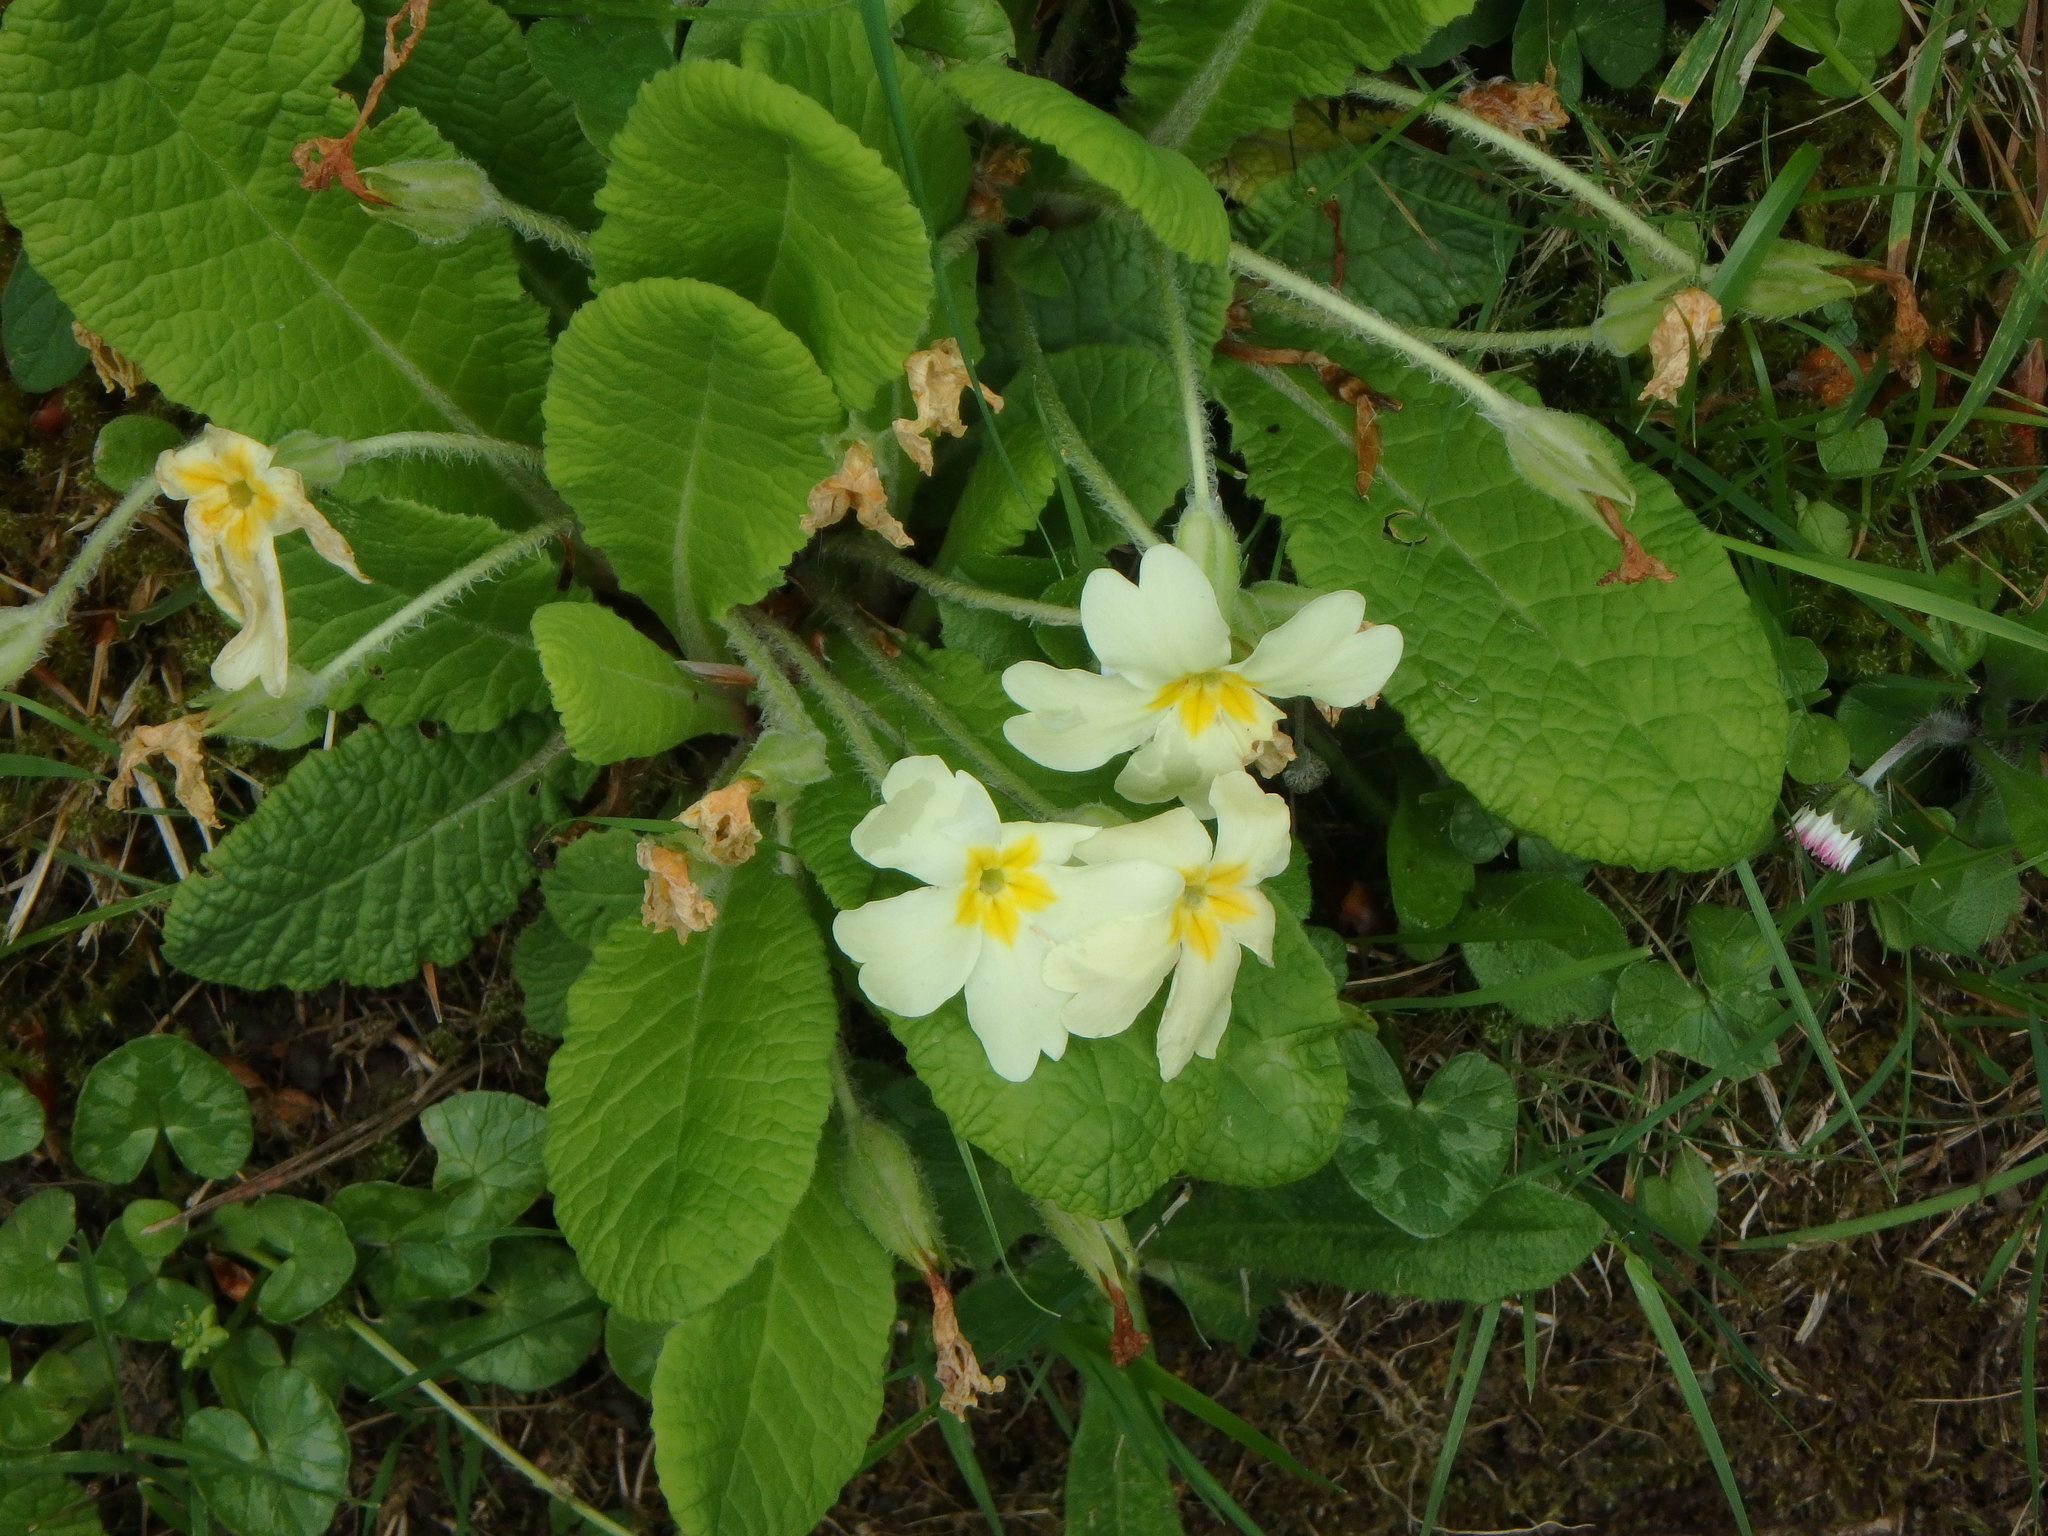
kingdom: Plantae
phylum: Tracheophyta
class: Magnoliopsida
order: Ericales
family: Primulaceae
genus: Primula
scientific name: Primula vulgaris
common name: Primrose
